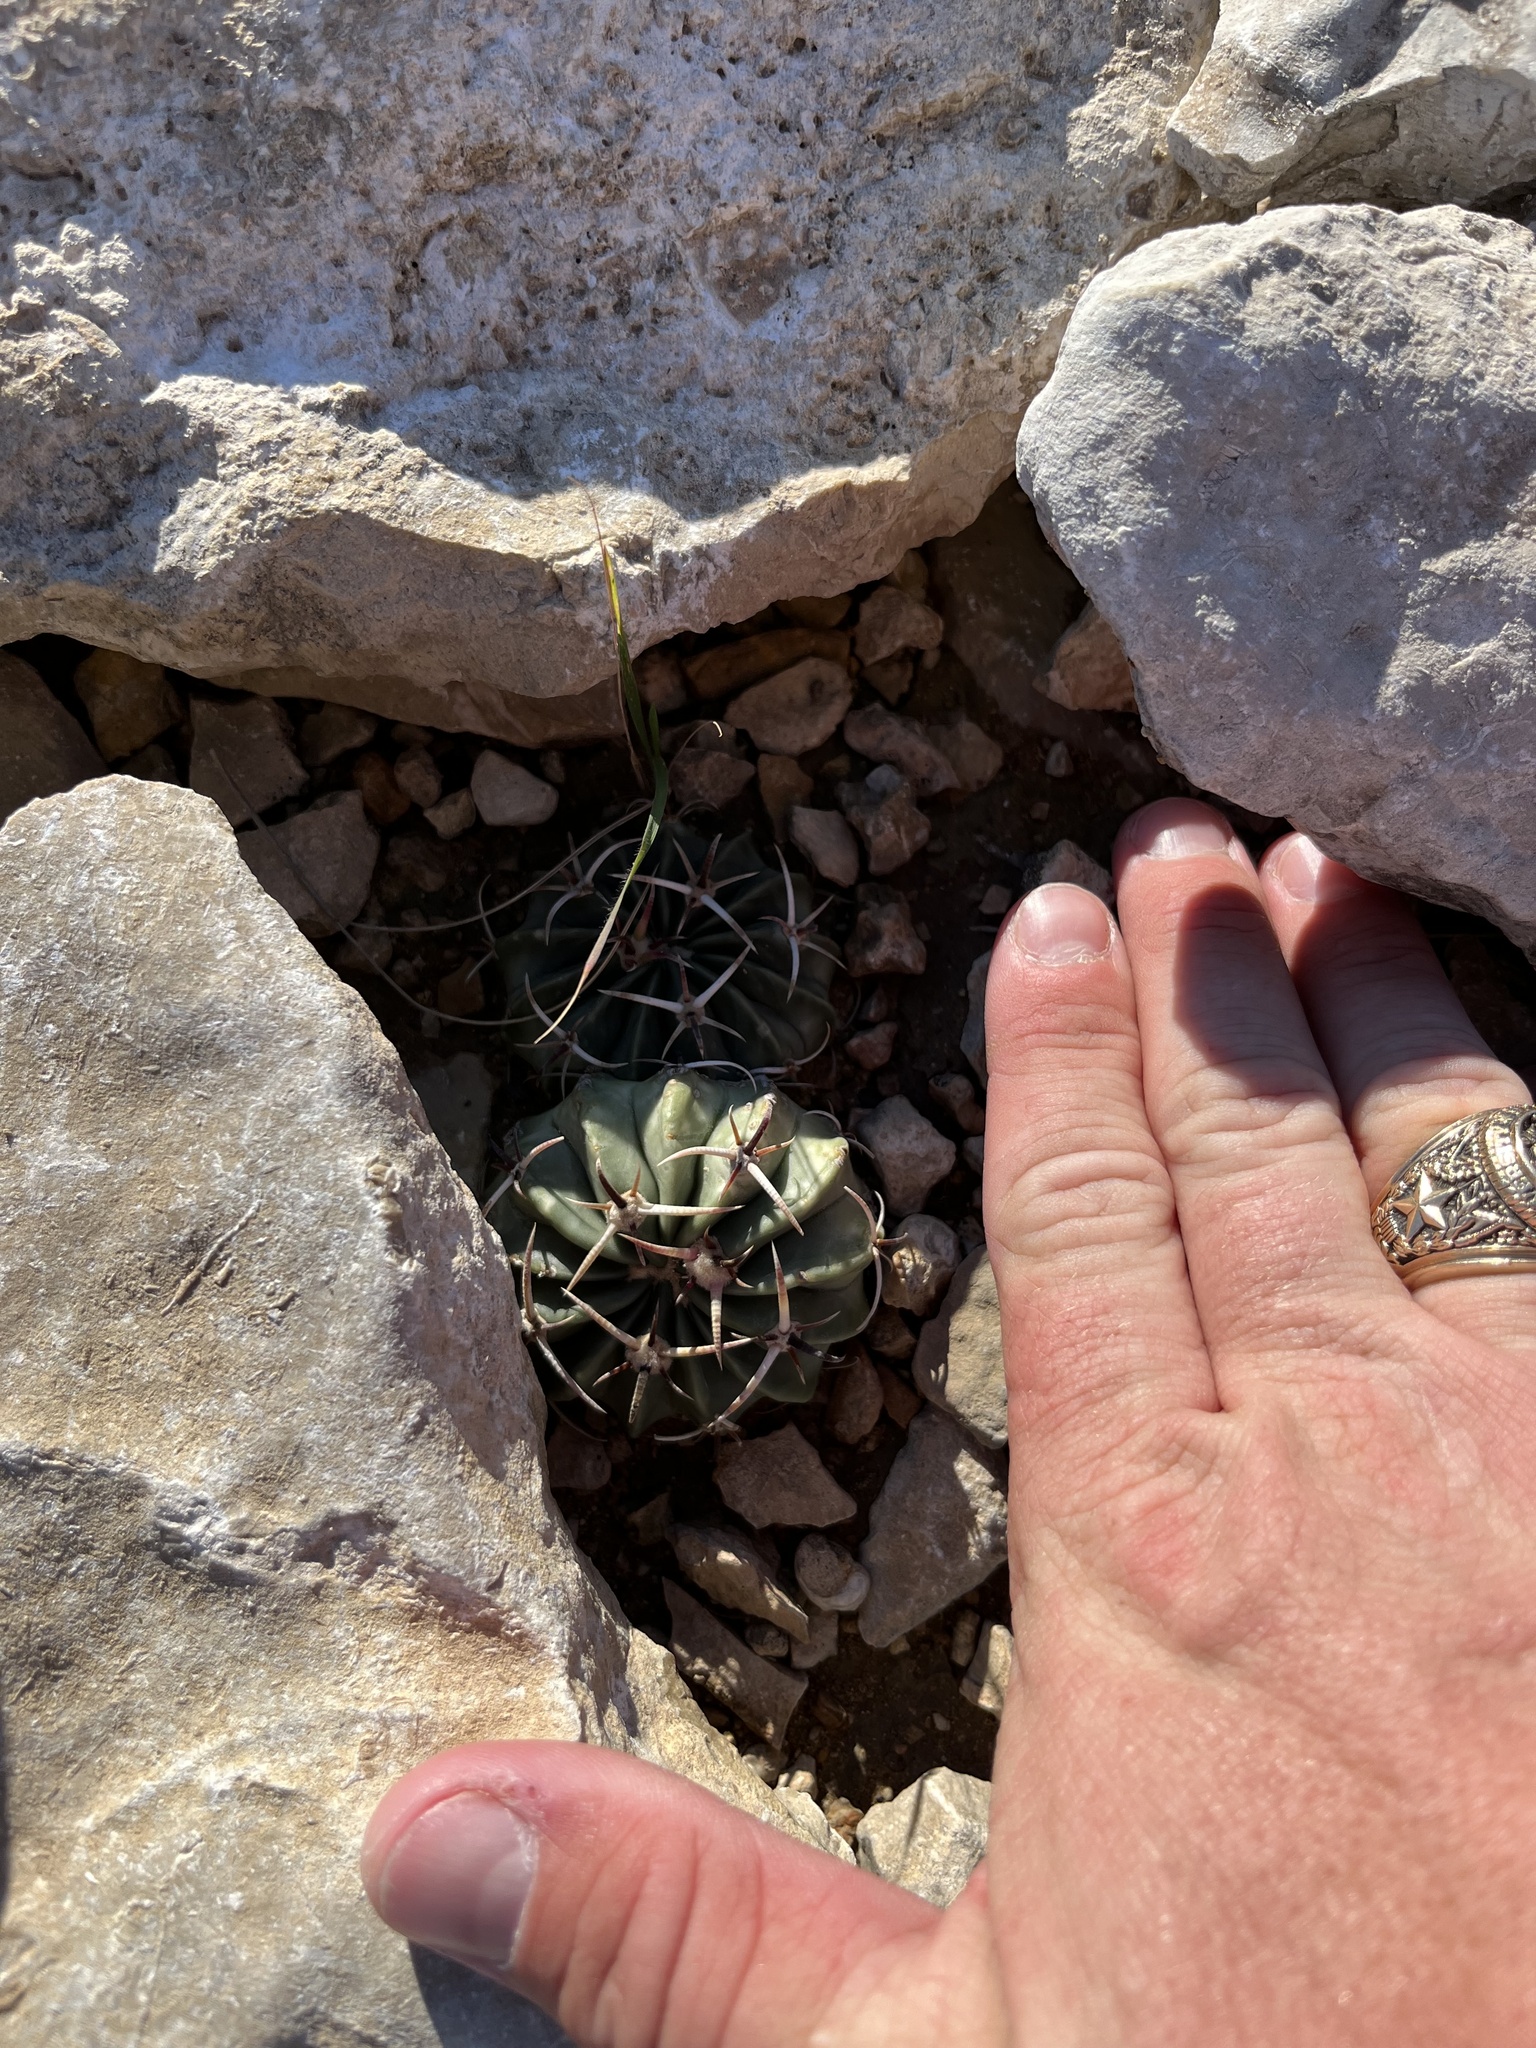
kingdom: Plantae
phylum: Tracheophyta
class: Magnoliopsida
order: Caryophyllales
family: Cactaceae
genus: Echinocactus
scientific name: Echinocactus texensis
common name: Devil's pincushion
